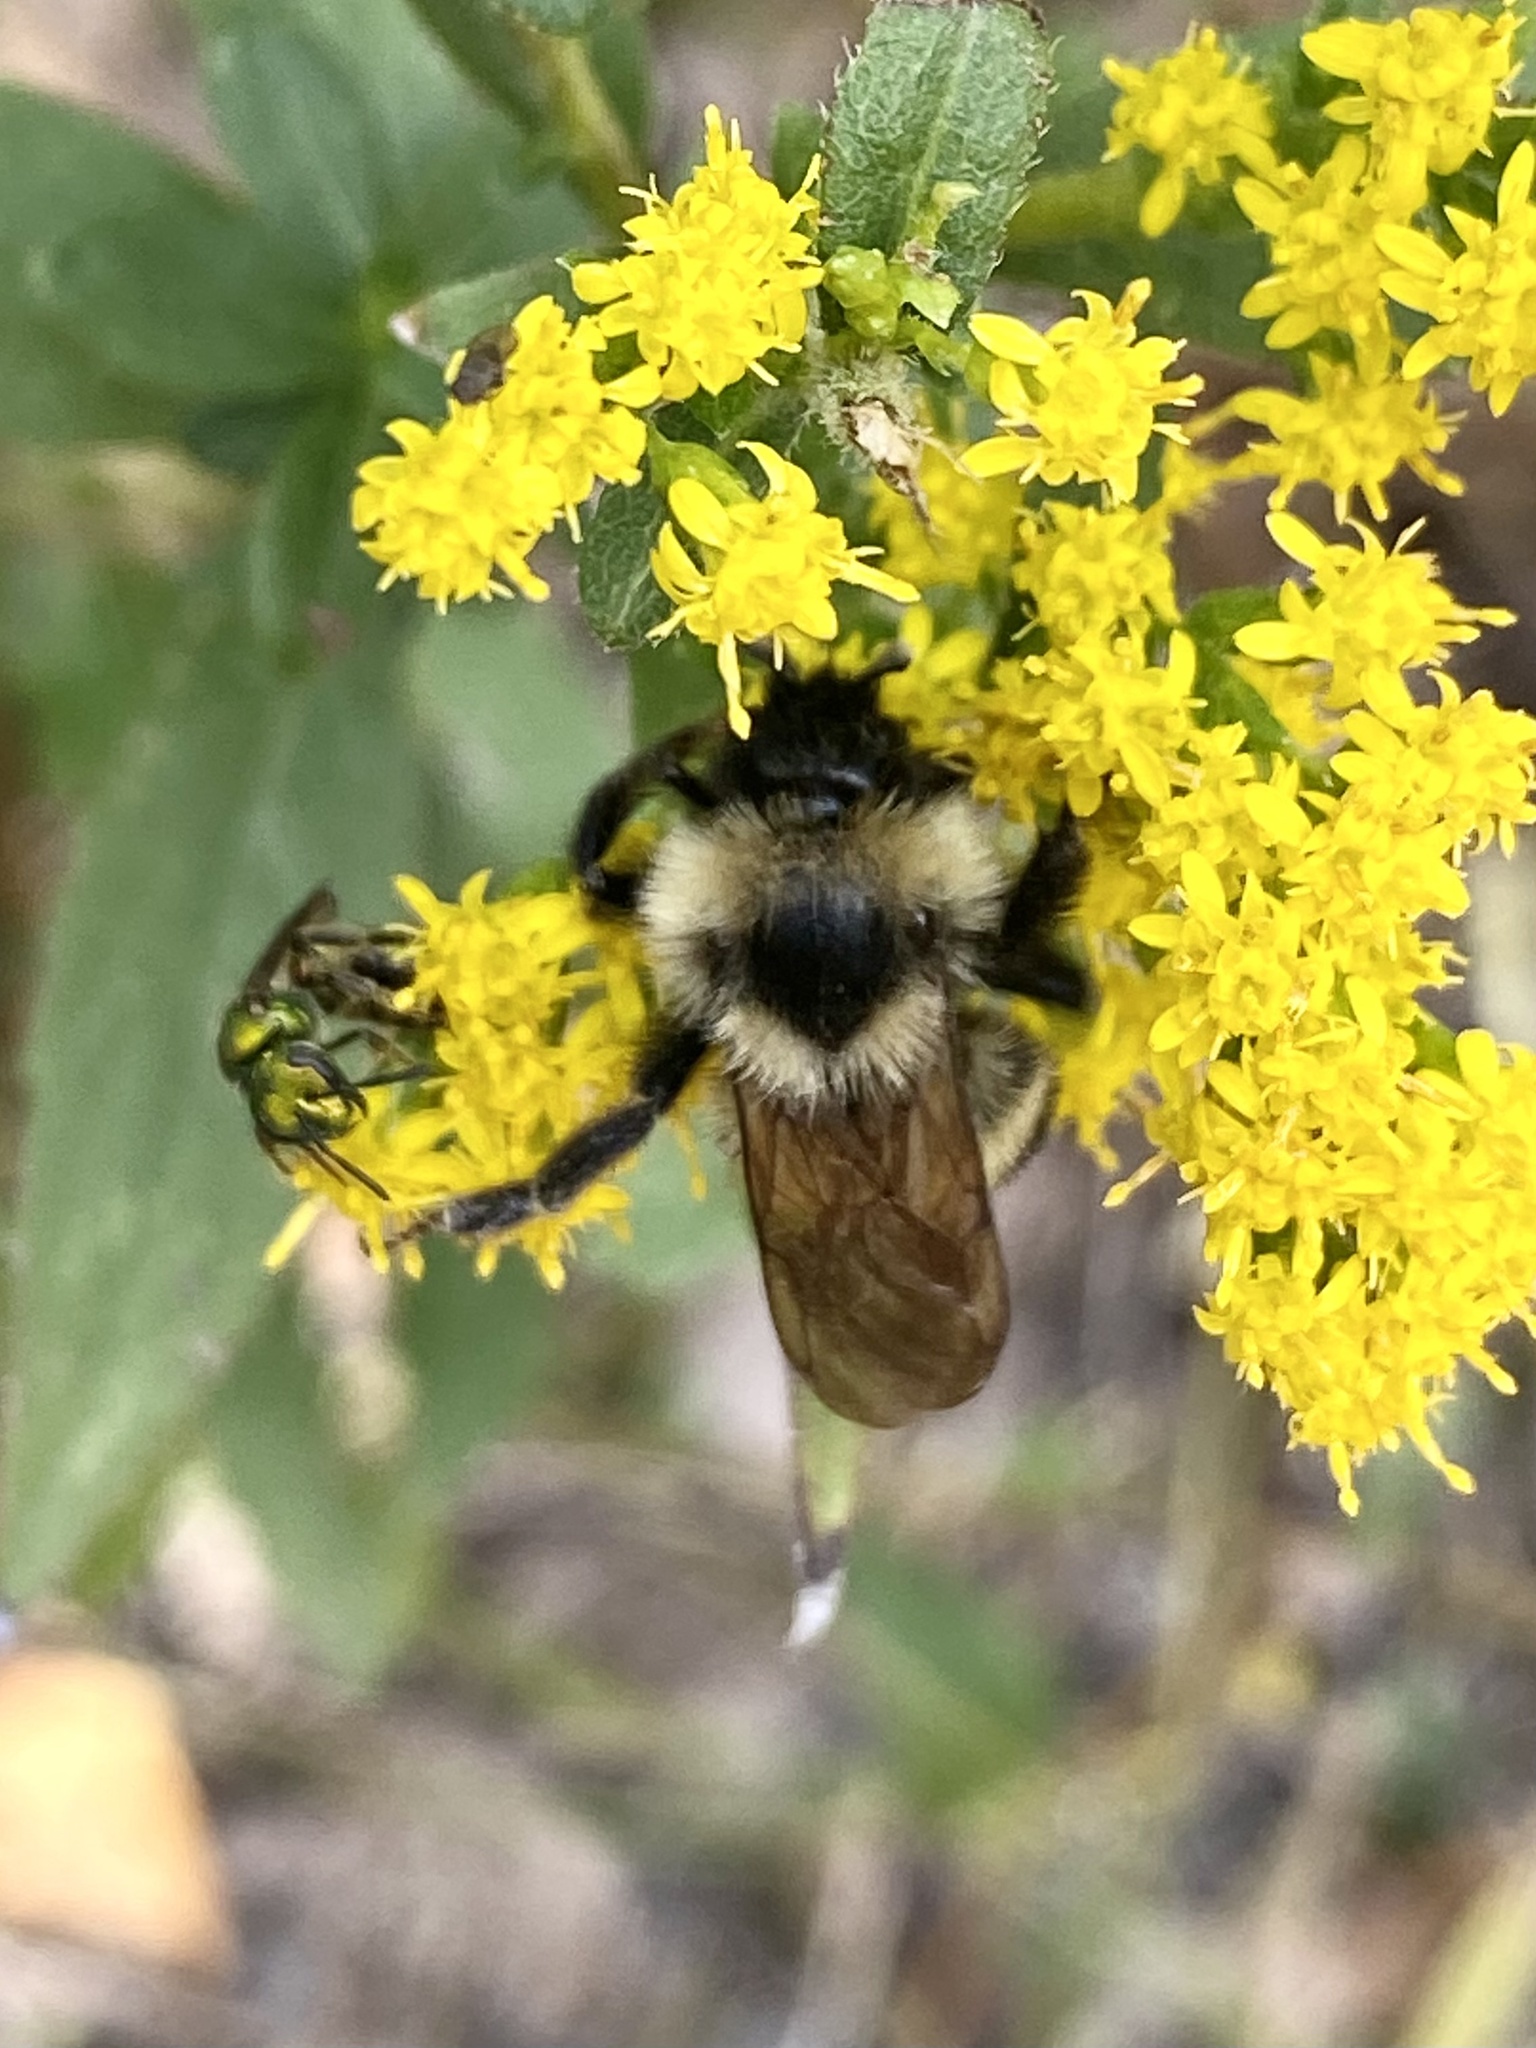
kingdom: Animalia
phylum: Arthropoda
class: Insecta
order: Hymenoptera
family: Apidae
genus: Bombus
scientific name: Bombus citrinus
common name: Lemon cuckoo bumble bee
